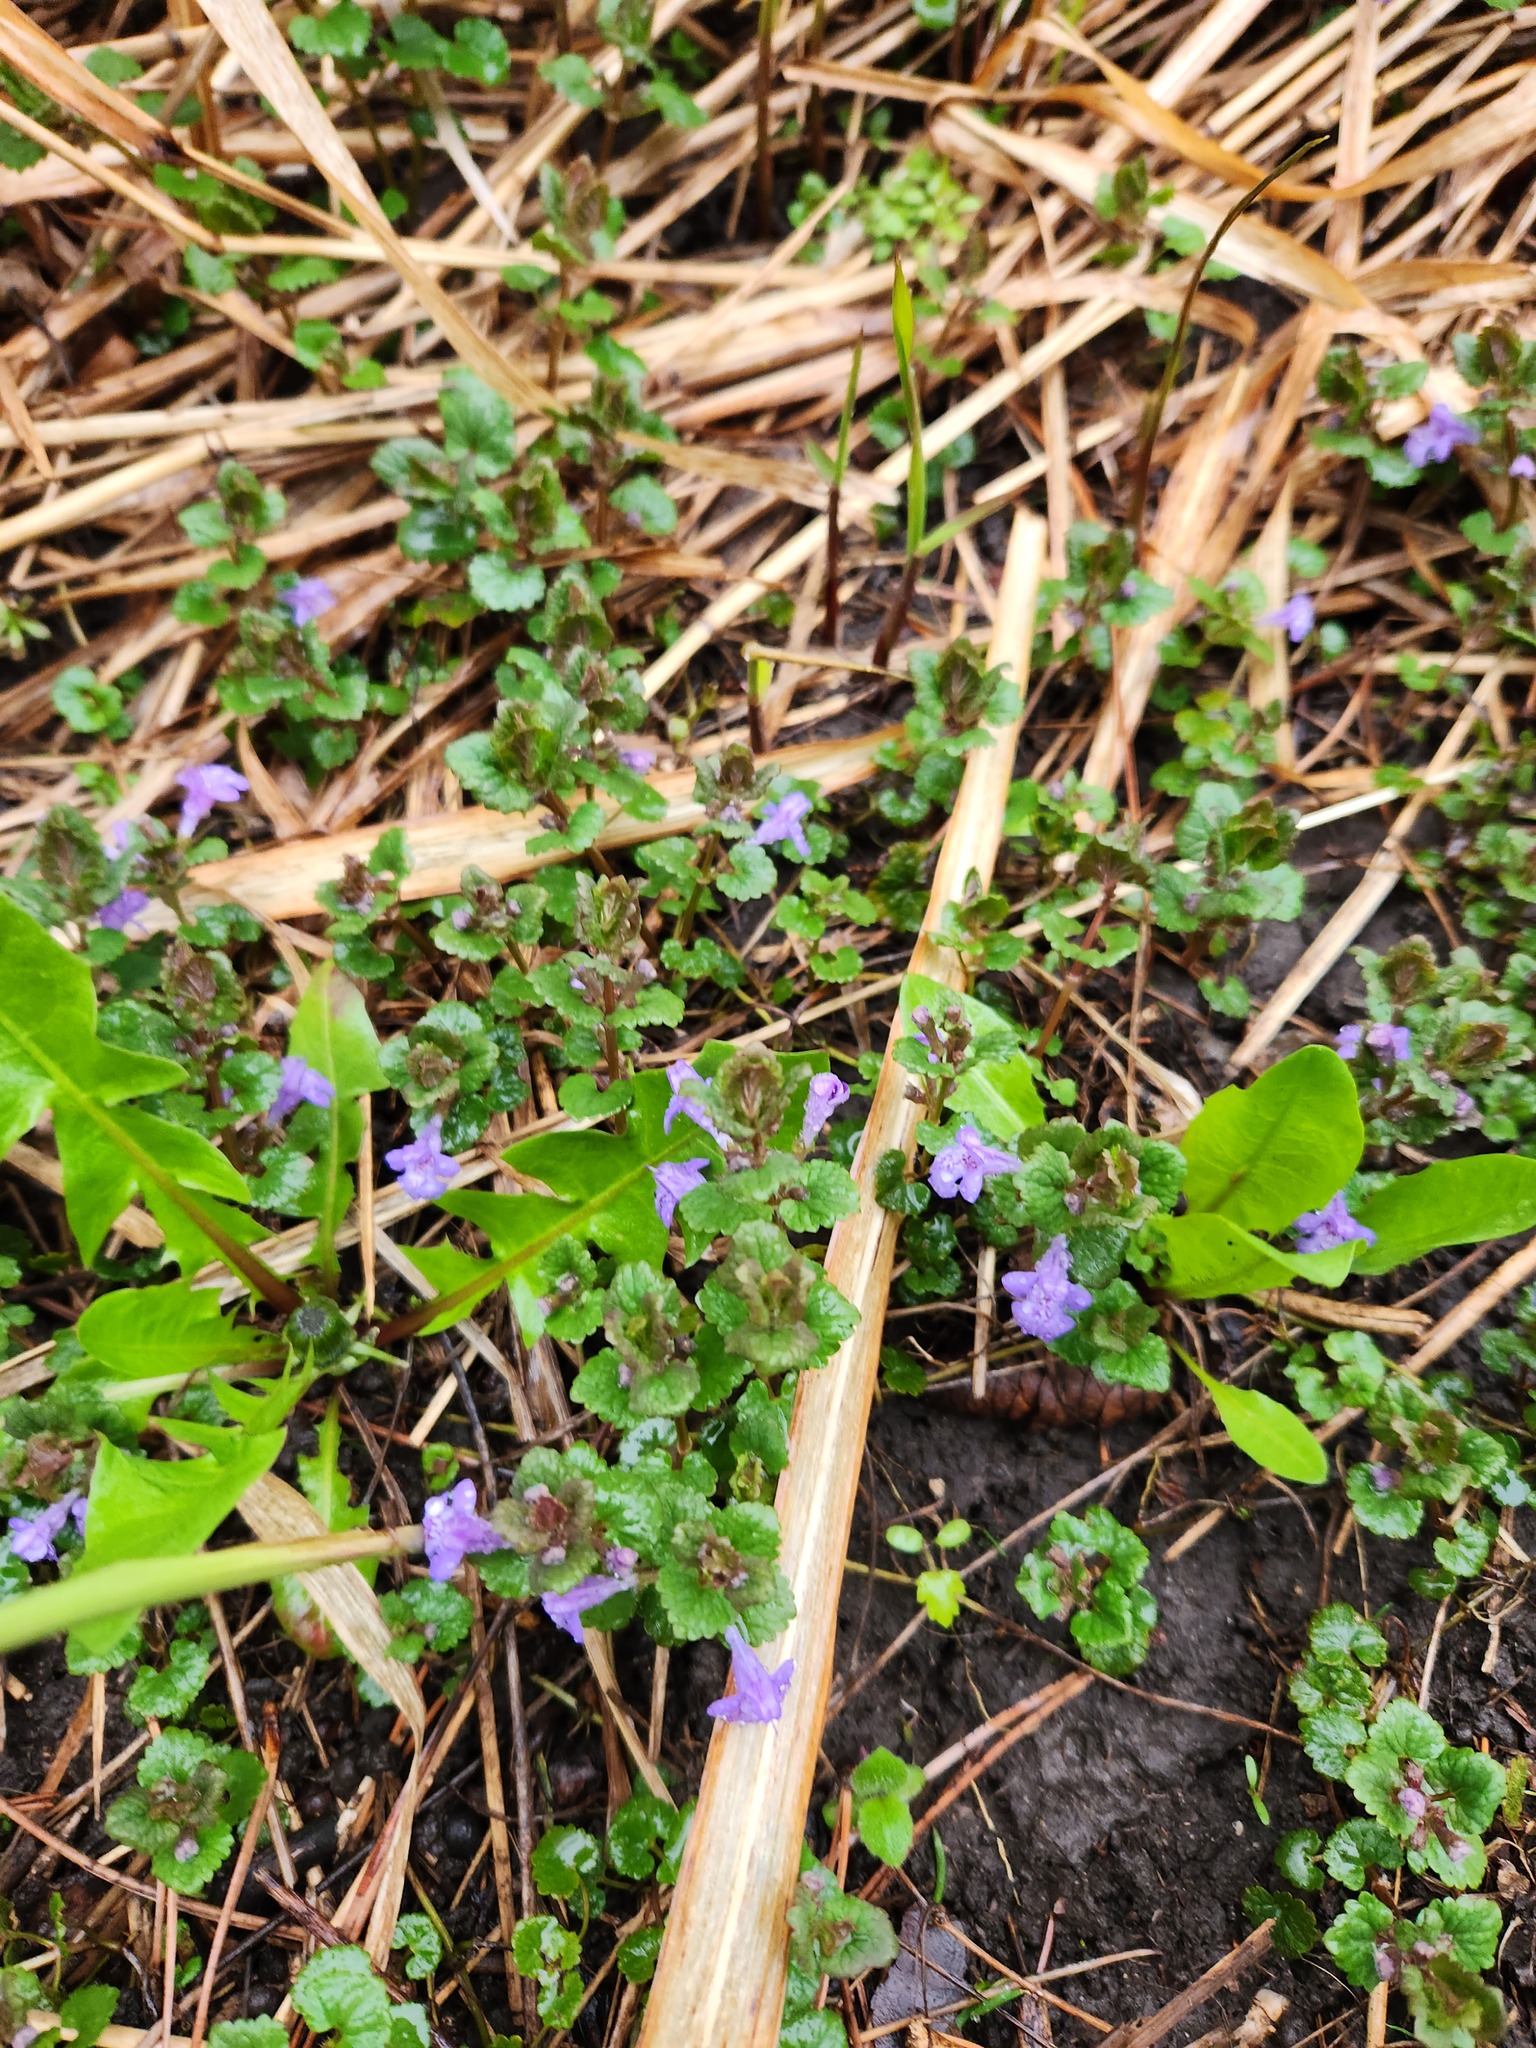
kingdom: Plantae
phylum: Tracheophyta
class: Magnoliopsida
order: Lamiales
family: Lamiaceae
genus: Glechoma
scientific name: Glechoma hederacea
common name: Ground ivy
